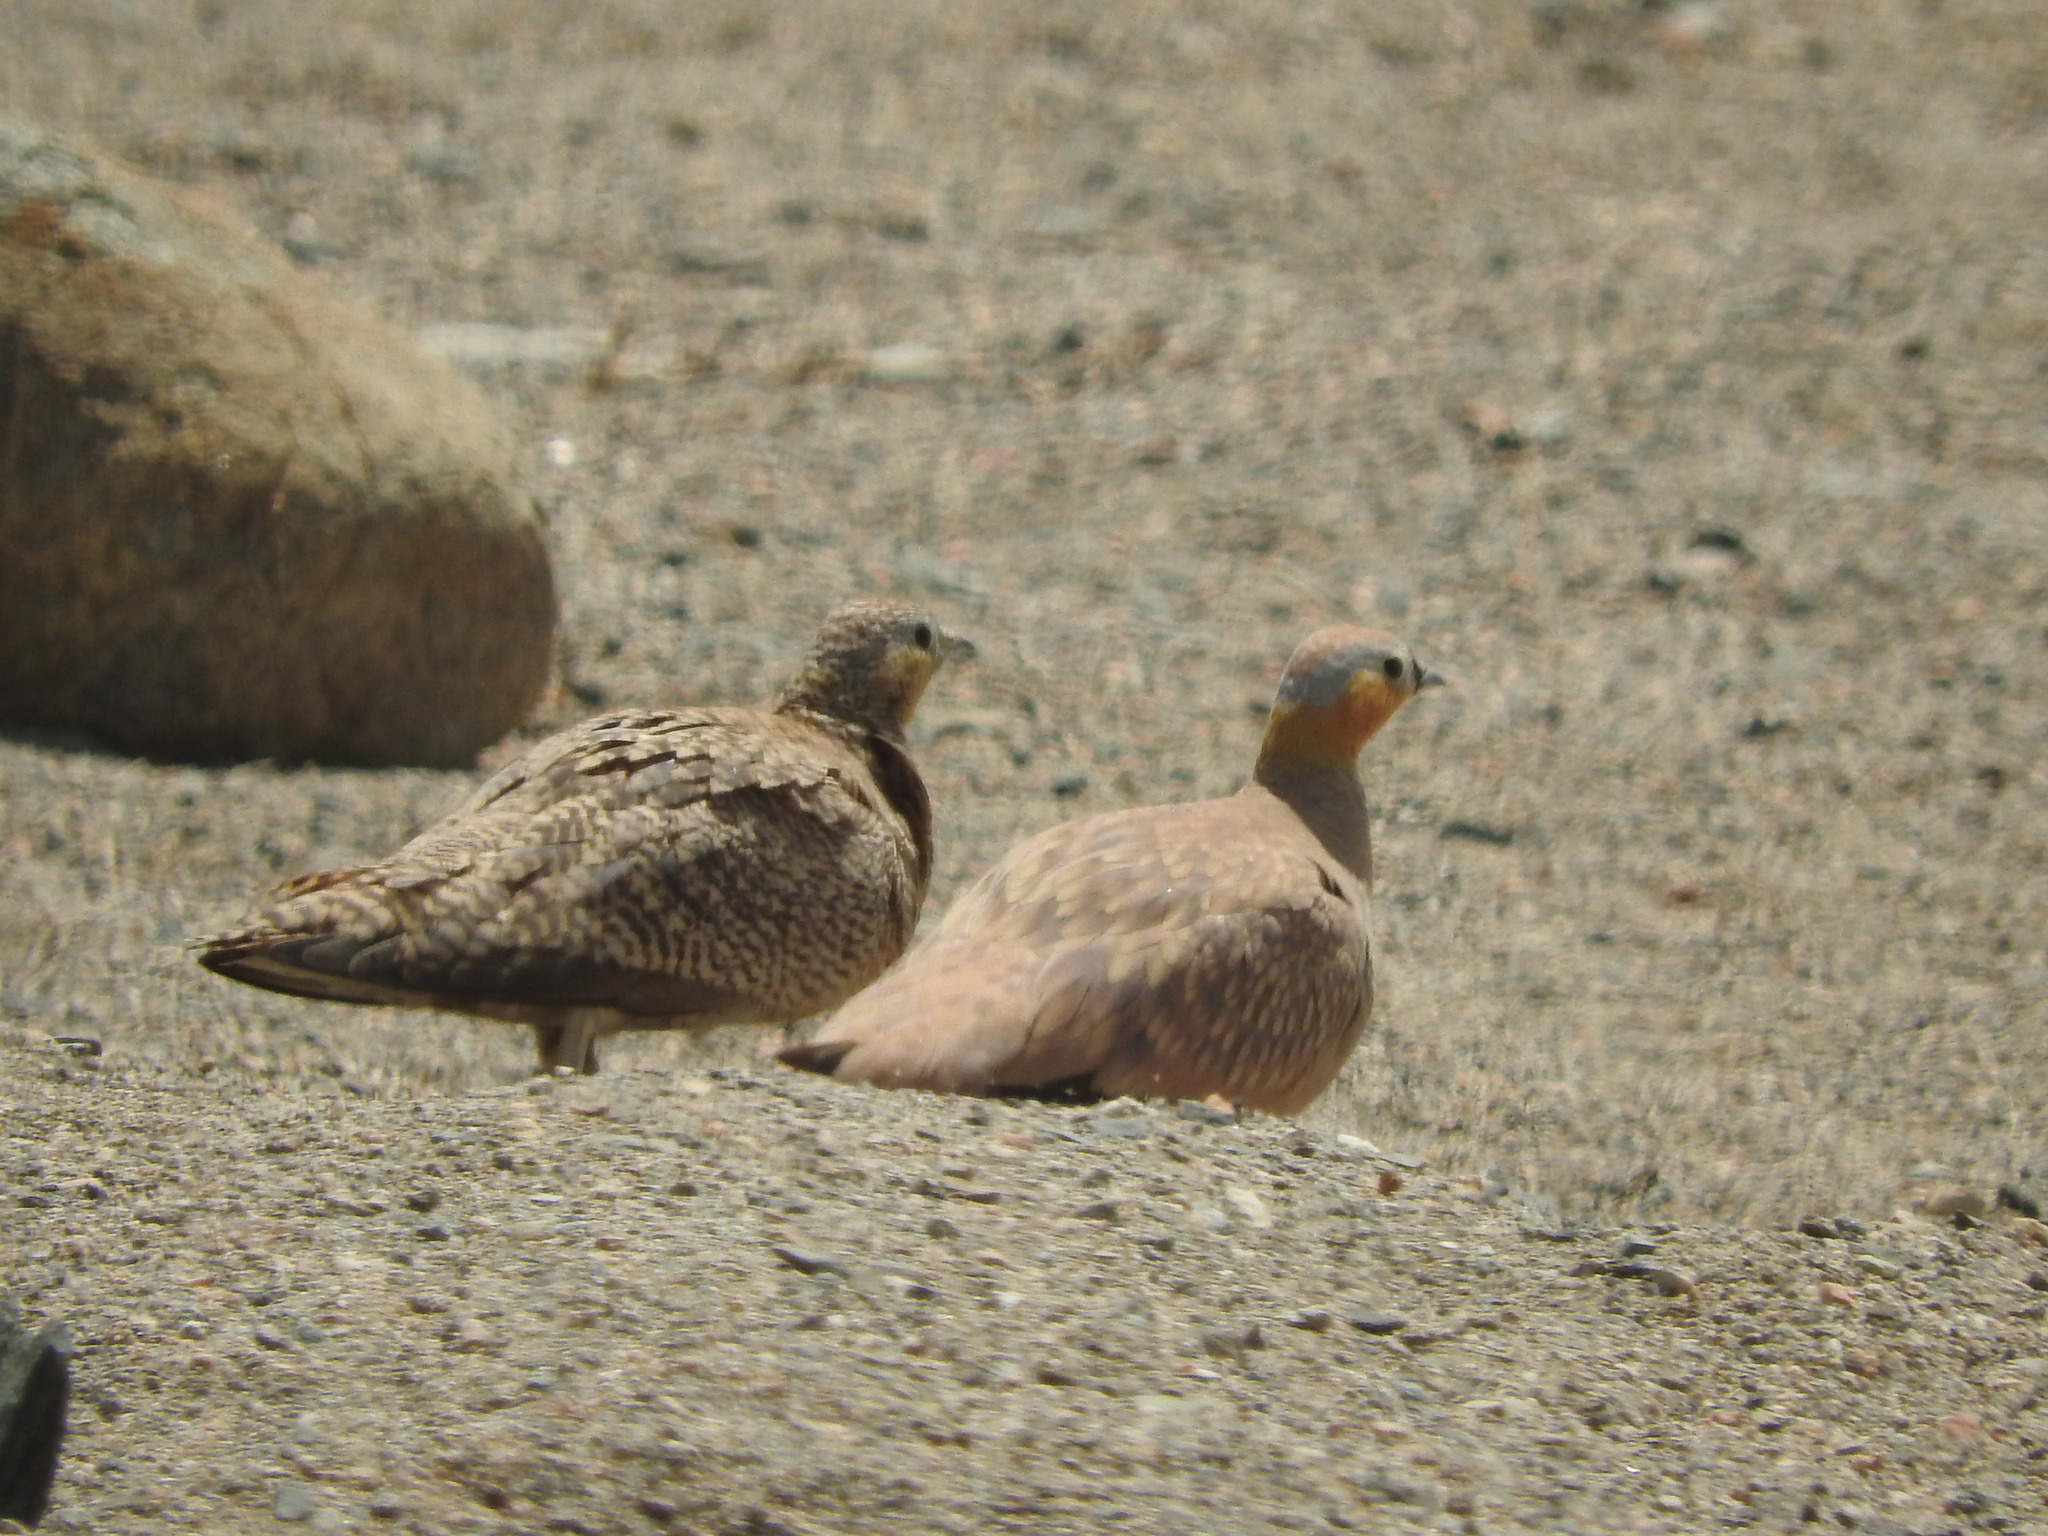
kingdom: Animalia
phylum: Chordata
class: Aves
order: Pteroclidiformes
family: Pteroclididae
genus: Pterocles
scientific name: Pterocles coronatus
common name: Crowned sandgrouse
